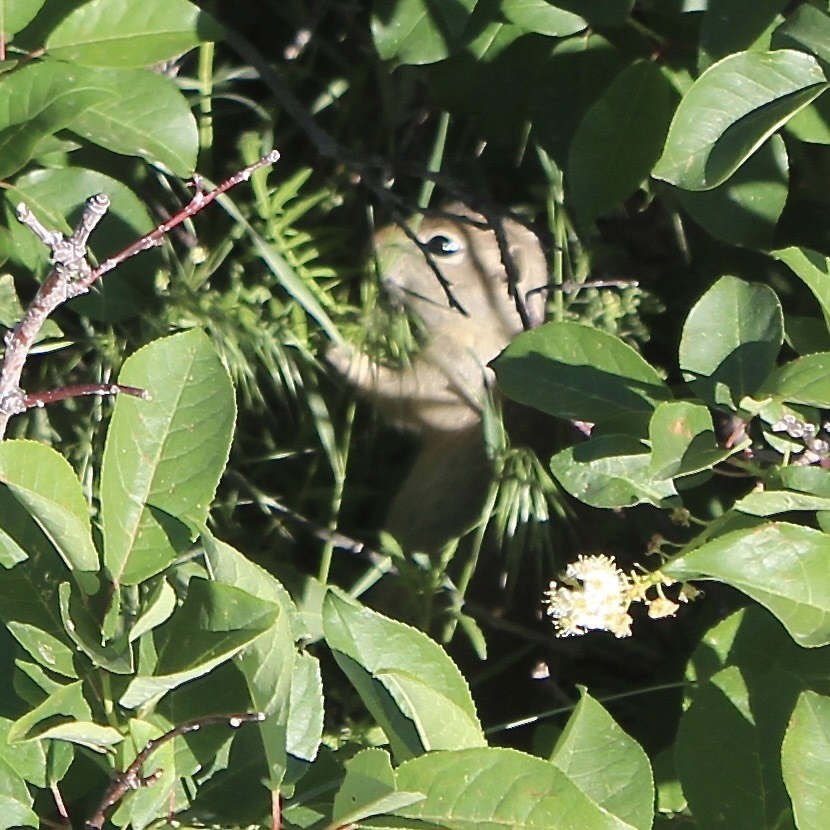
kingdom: Animalia
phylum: Chordata
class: Mammalia
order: Rodentia
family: Sciuridae
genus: Urocitellus
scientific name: Urocitellus elegans
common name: Wyoming ground squirrel
